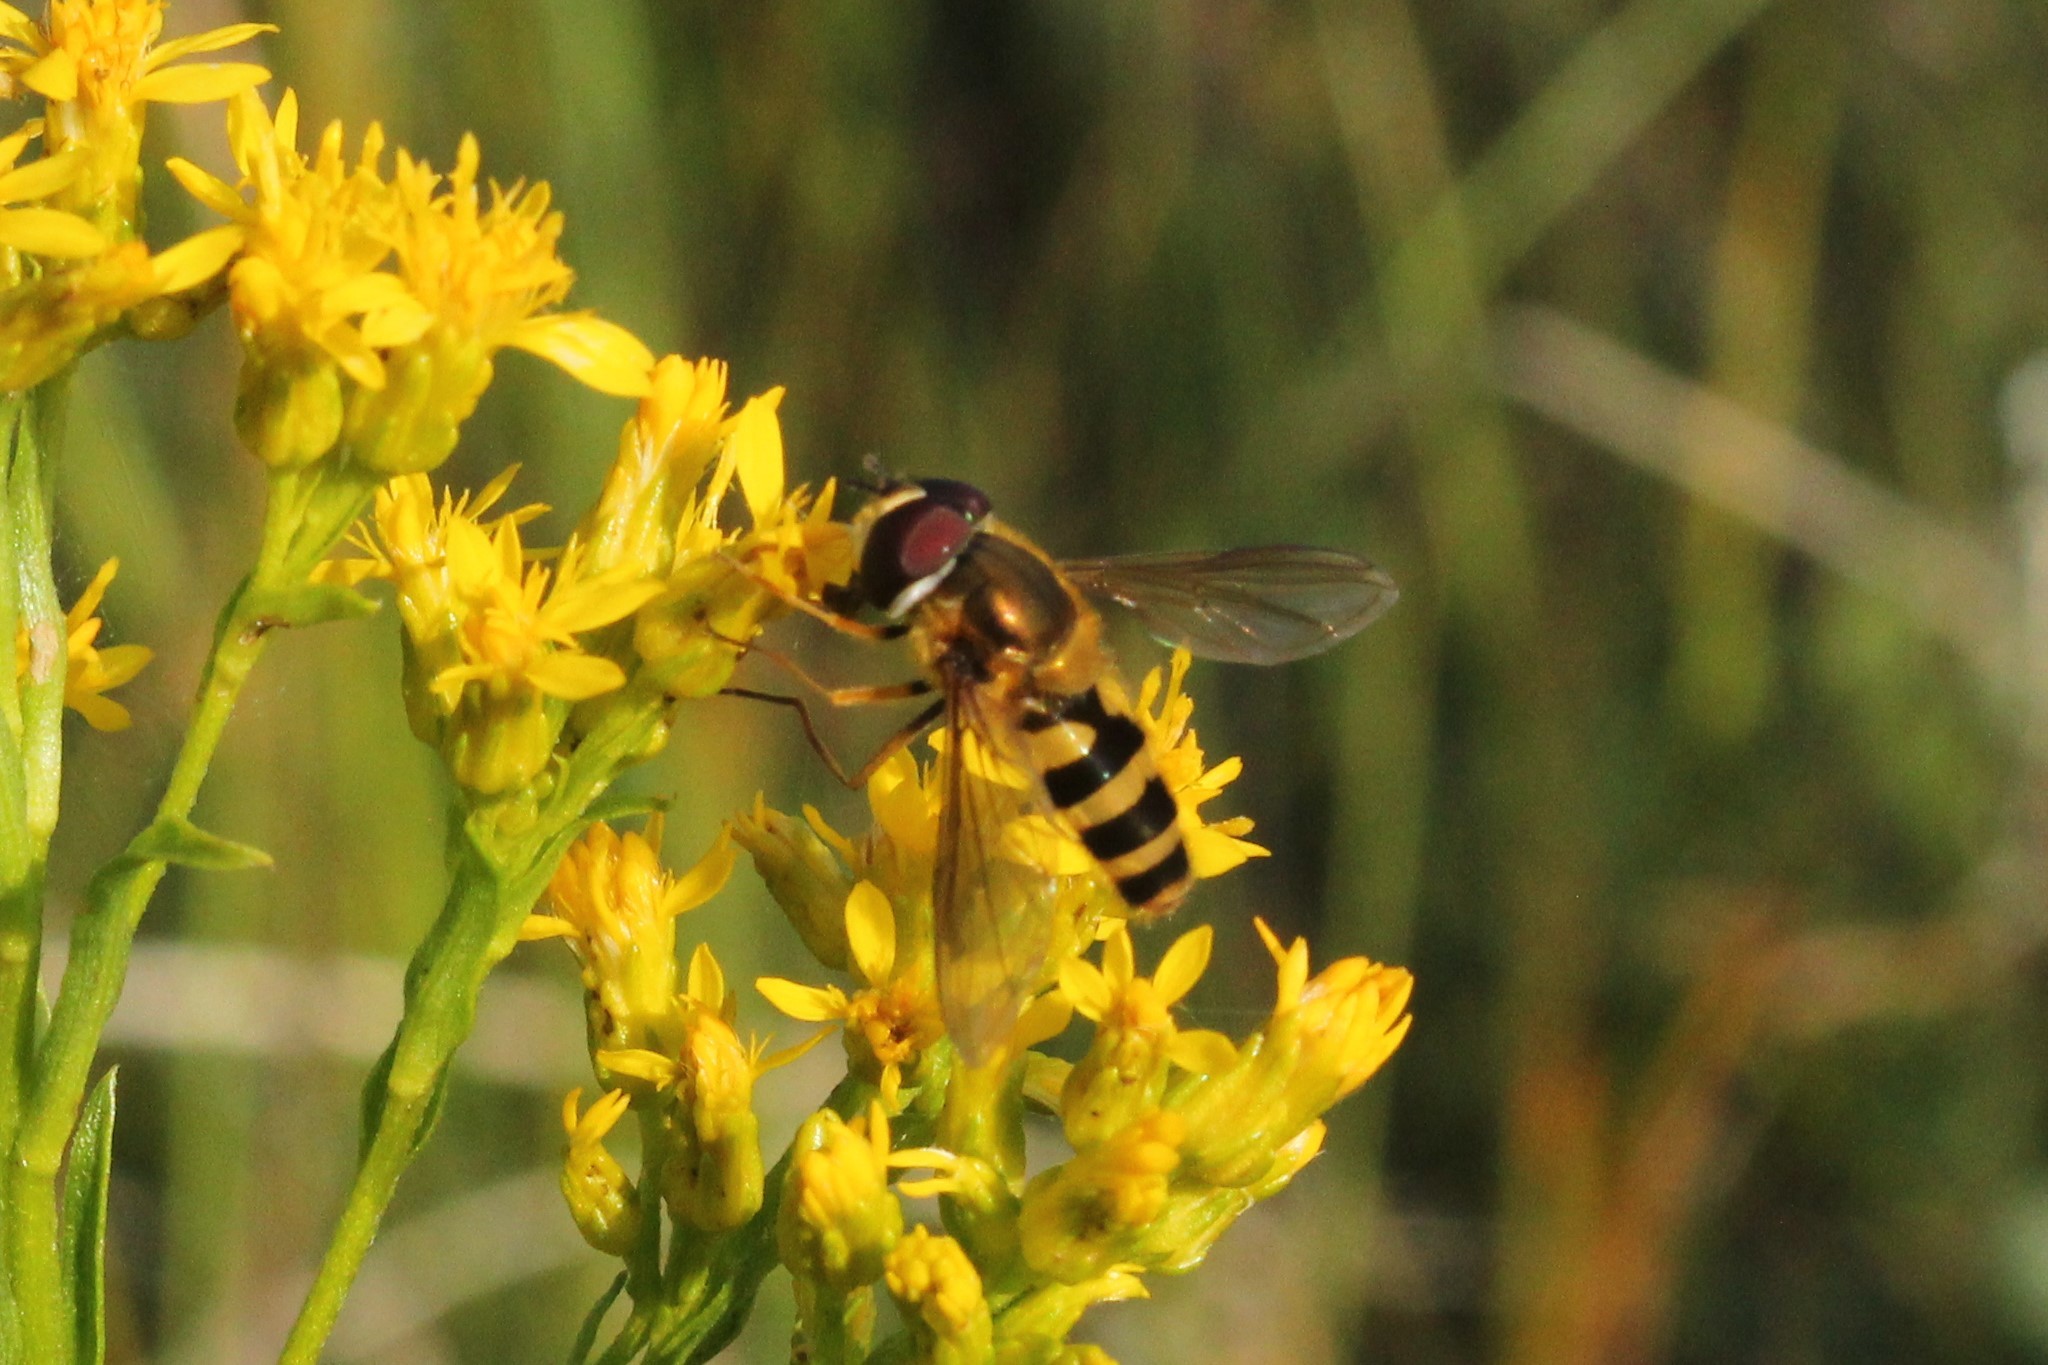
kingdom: Animalia
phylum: Arthropoda
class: Insecta
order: Diptera
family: Syrphidae
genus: Epistrophe
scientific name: Epistrophe grossulariae
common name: Black-horned smoothtail
